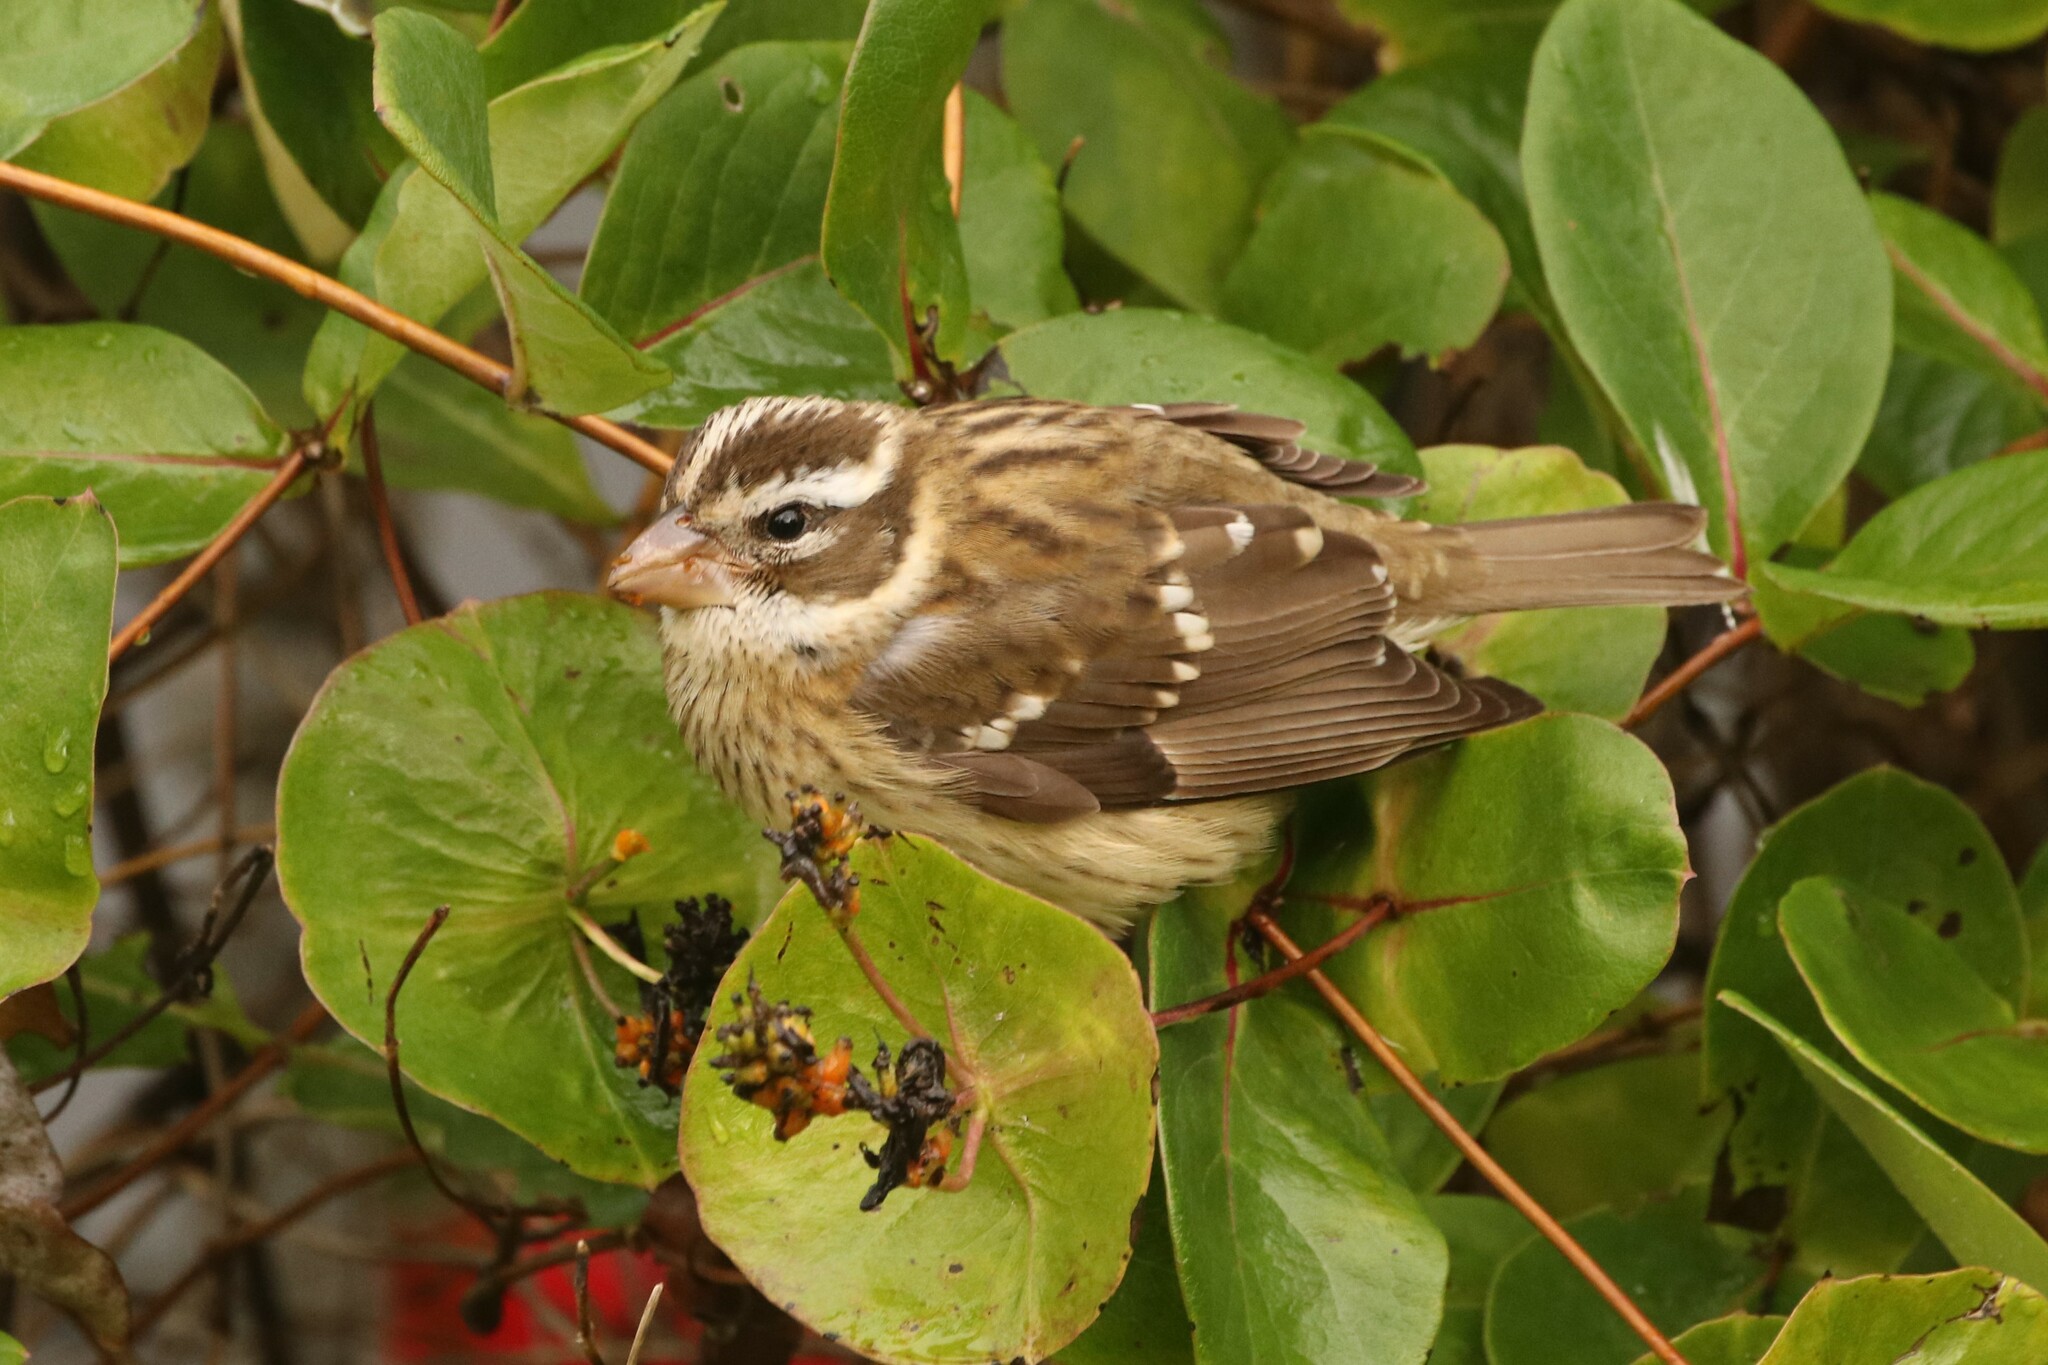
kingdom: Animalia
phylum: Chordata
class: Aves
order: Passeriformes
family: Cardinalidae
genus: Pheucticus
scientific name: Pheucticus ludovicianus
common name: Rose-breasted grosbeak
